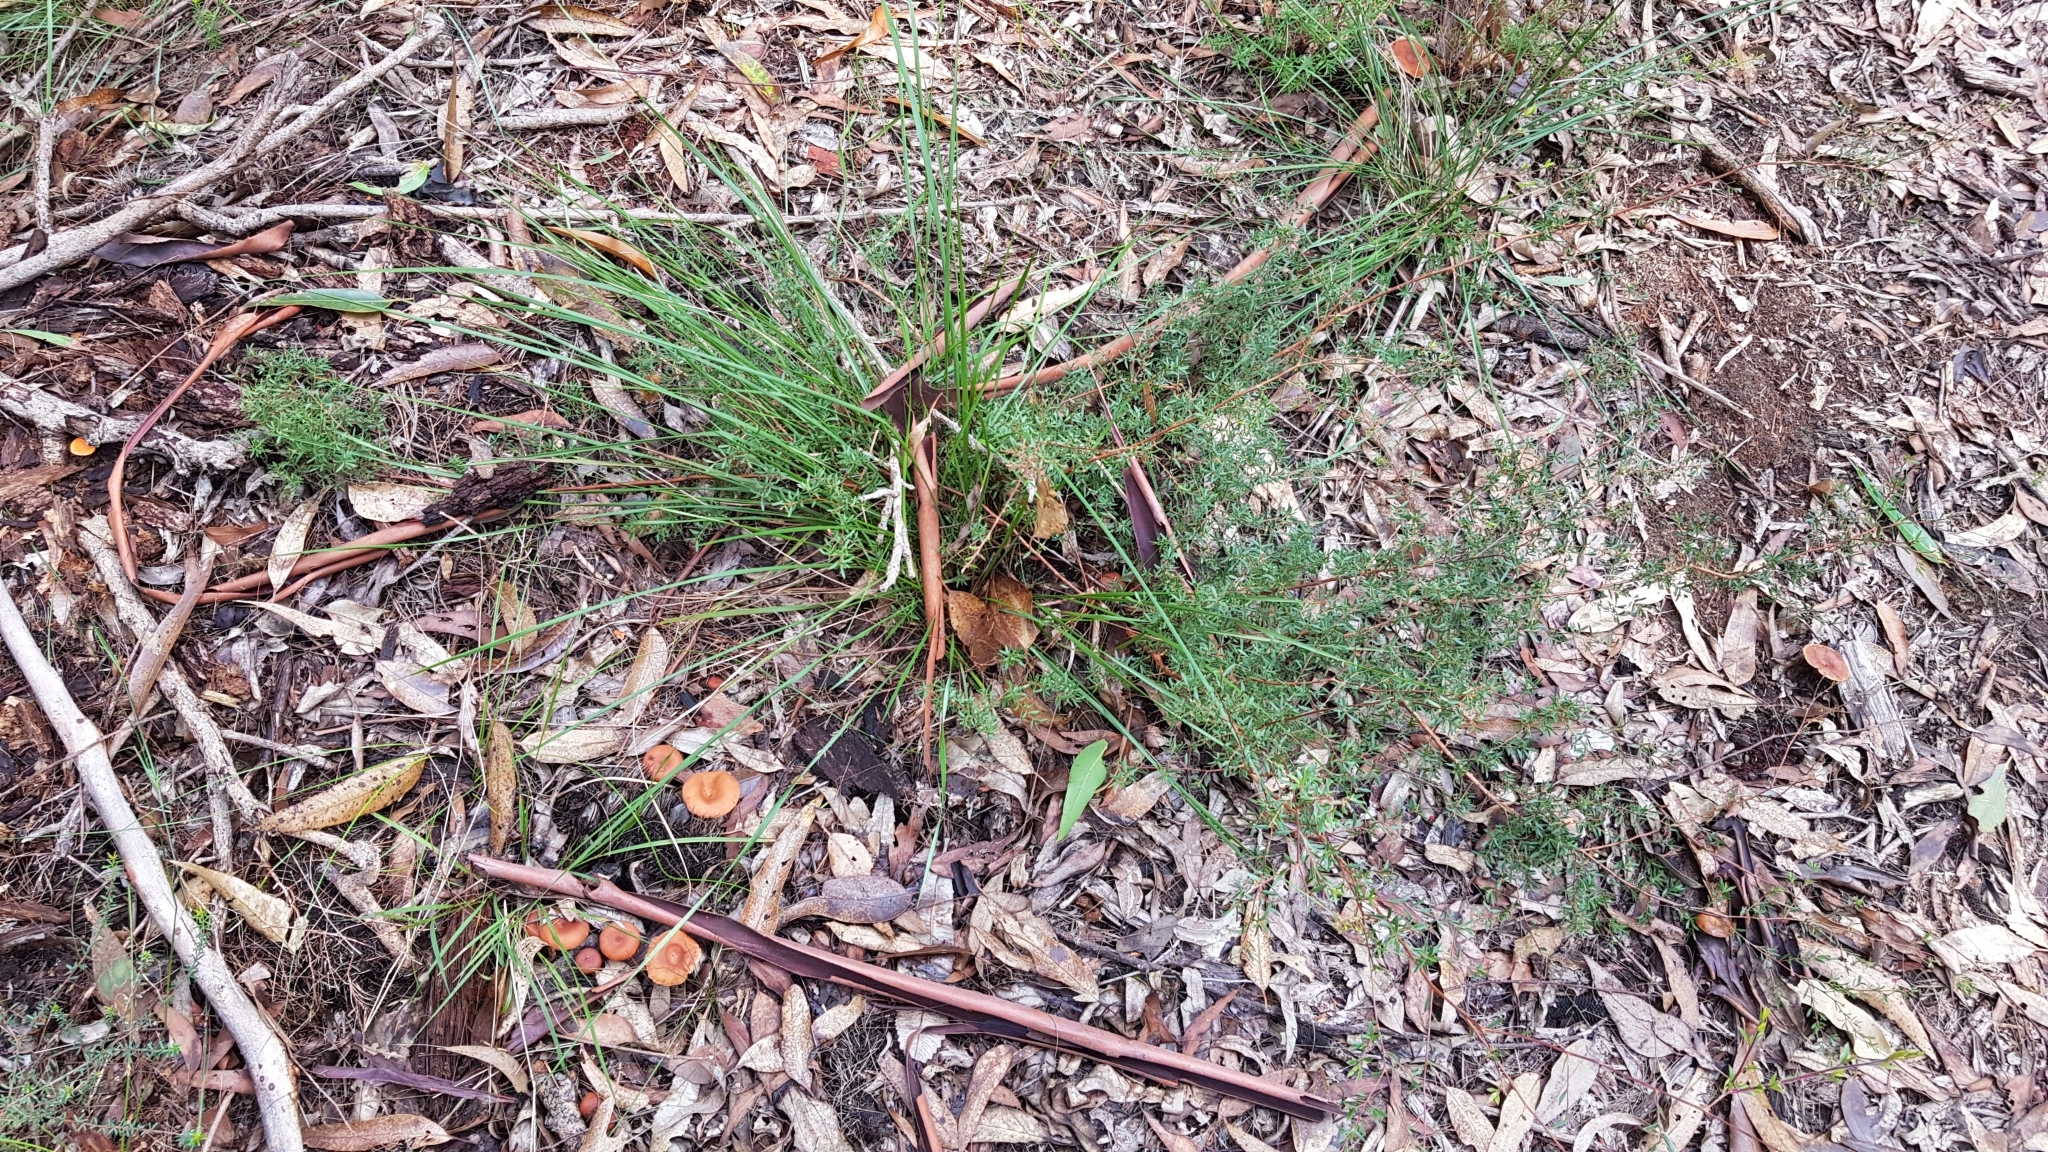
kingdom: Fungi
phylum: Basidiomycota
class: Agaricomycetes
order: Russulales
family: Russulaceae
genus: Lactarius
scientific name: Lactarius eucalypti
